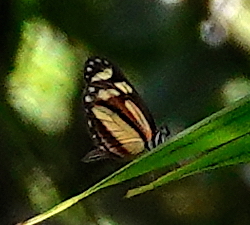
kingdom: Animalia
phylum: Arthropoda
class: Insecta
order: Lepidoptera
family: Pieridae
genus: Dismorphia
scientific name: Dismorphia theucharila
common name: Clearwing mimic-white
